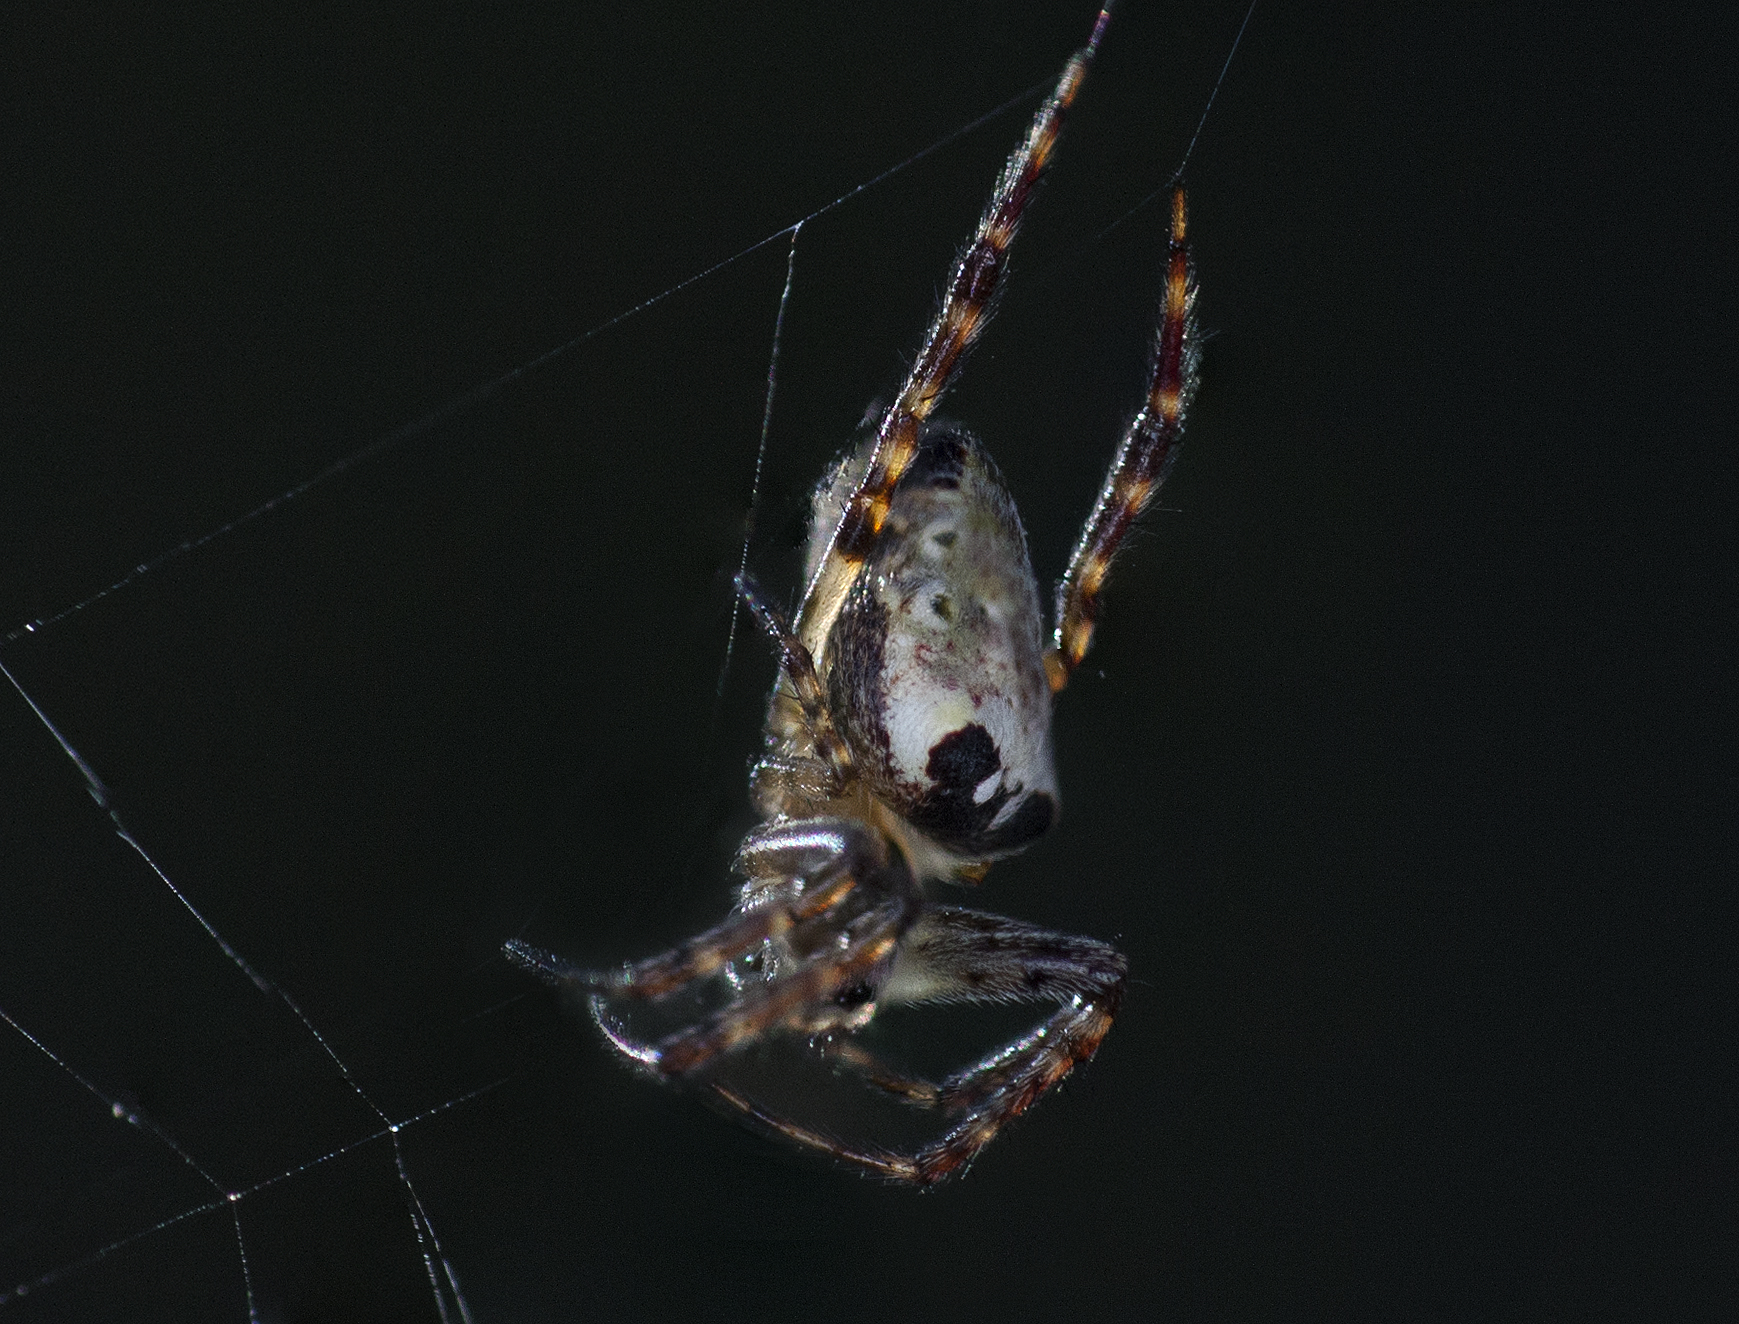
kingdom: Animalia
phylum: Arthropoda
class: Arachnida
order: Araneae
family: Araneidae
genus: Plebs
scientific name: Plebs eburnus
